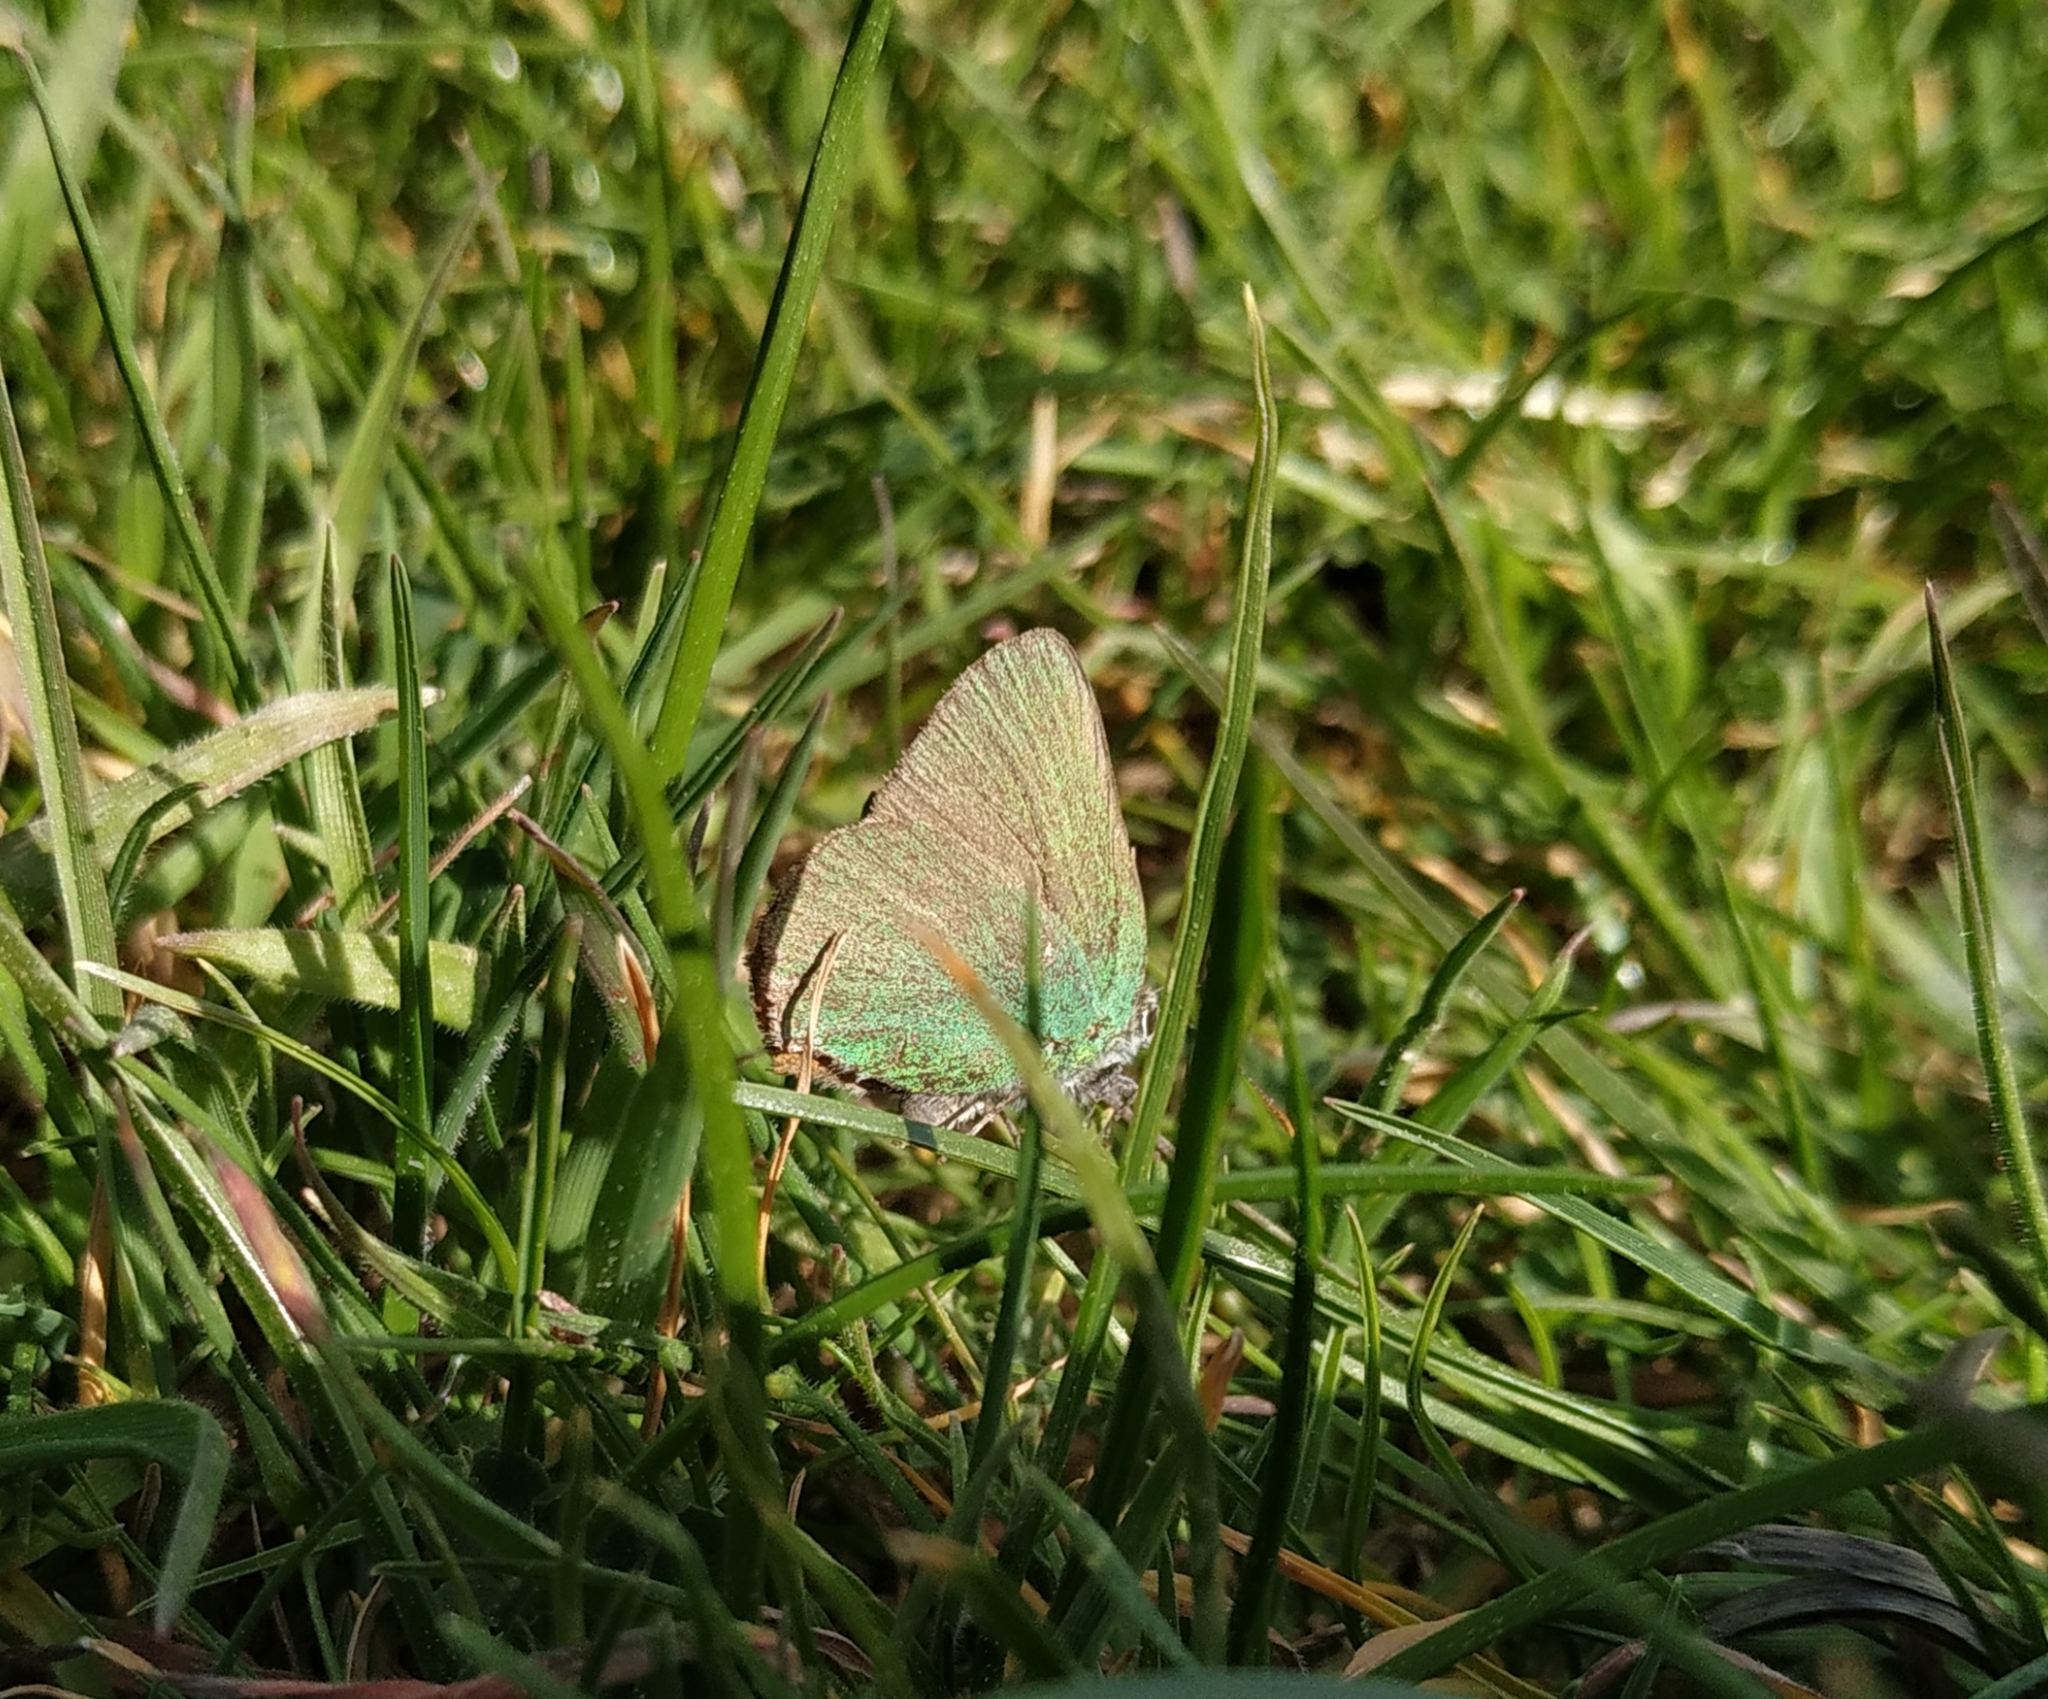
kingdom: Animalia
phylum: Arthropoda
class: Insecta
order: Lepidoptera
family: Lycaenidae
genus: Callophrys
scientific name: Callophrys rubi
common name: Green hairstreak
